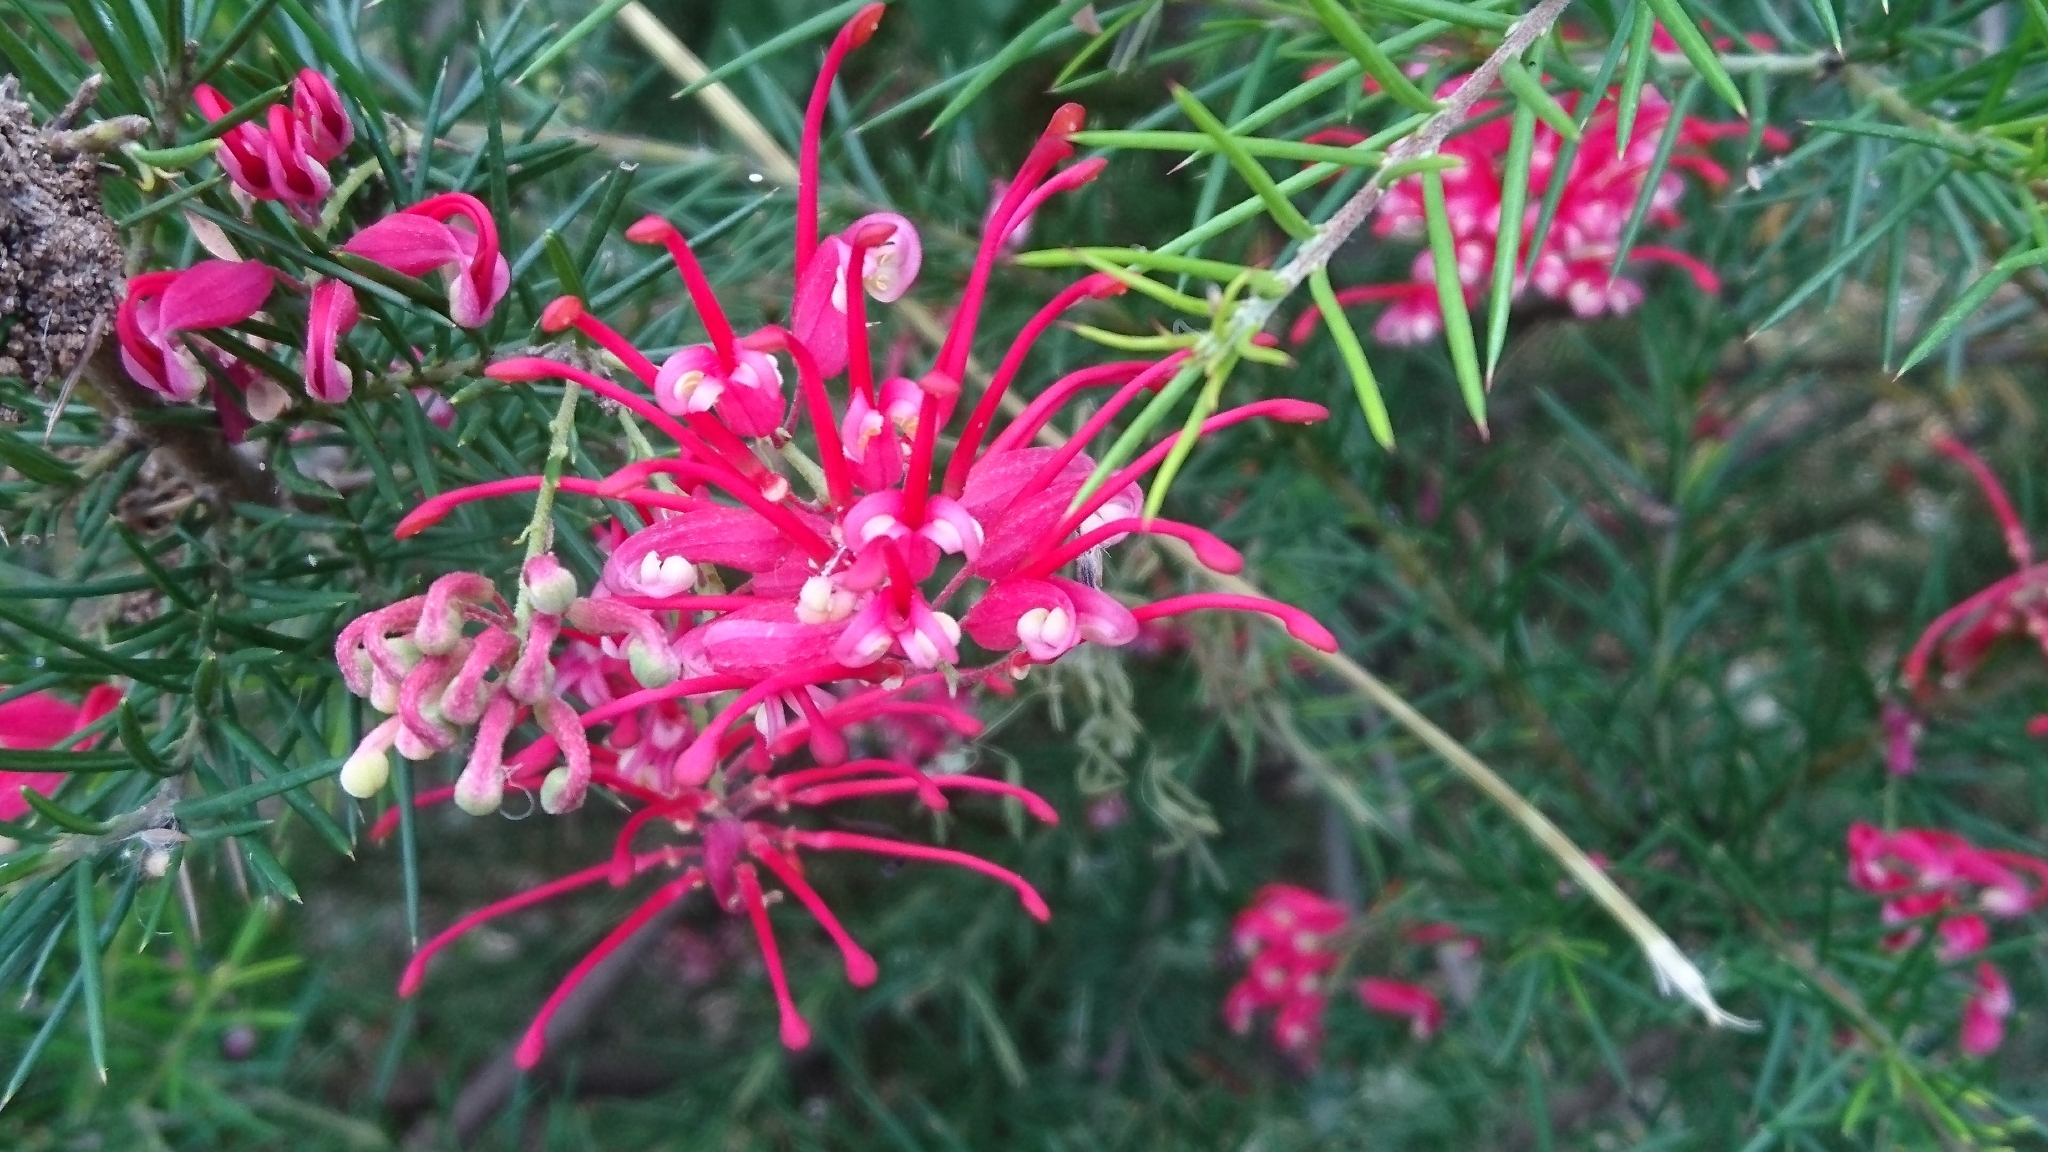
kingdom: Plantae
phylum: Tracheophyta
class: Magnoliopsida
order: Proteales
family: Proteaceae
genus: Grevillea
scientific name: Grevillea rosmarinifolia
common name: Rosemary grevillea
